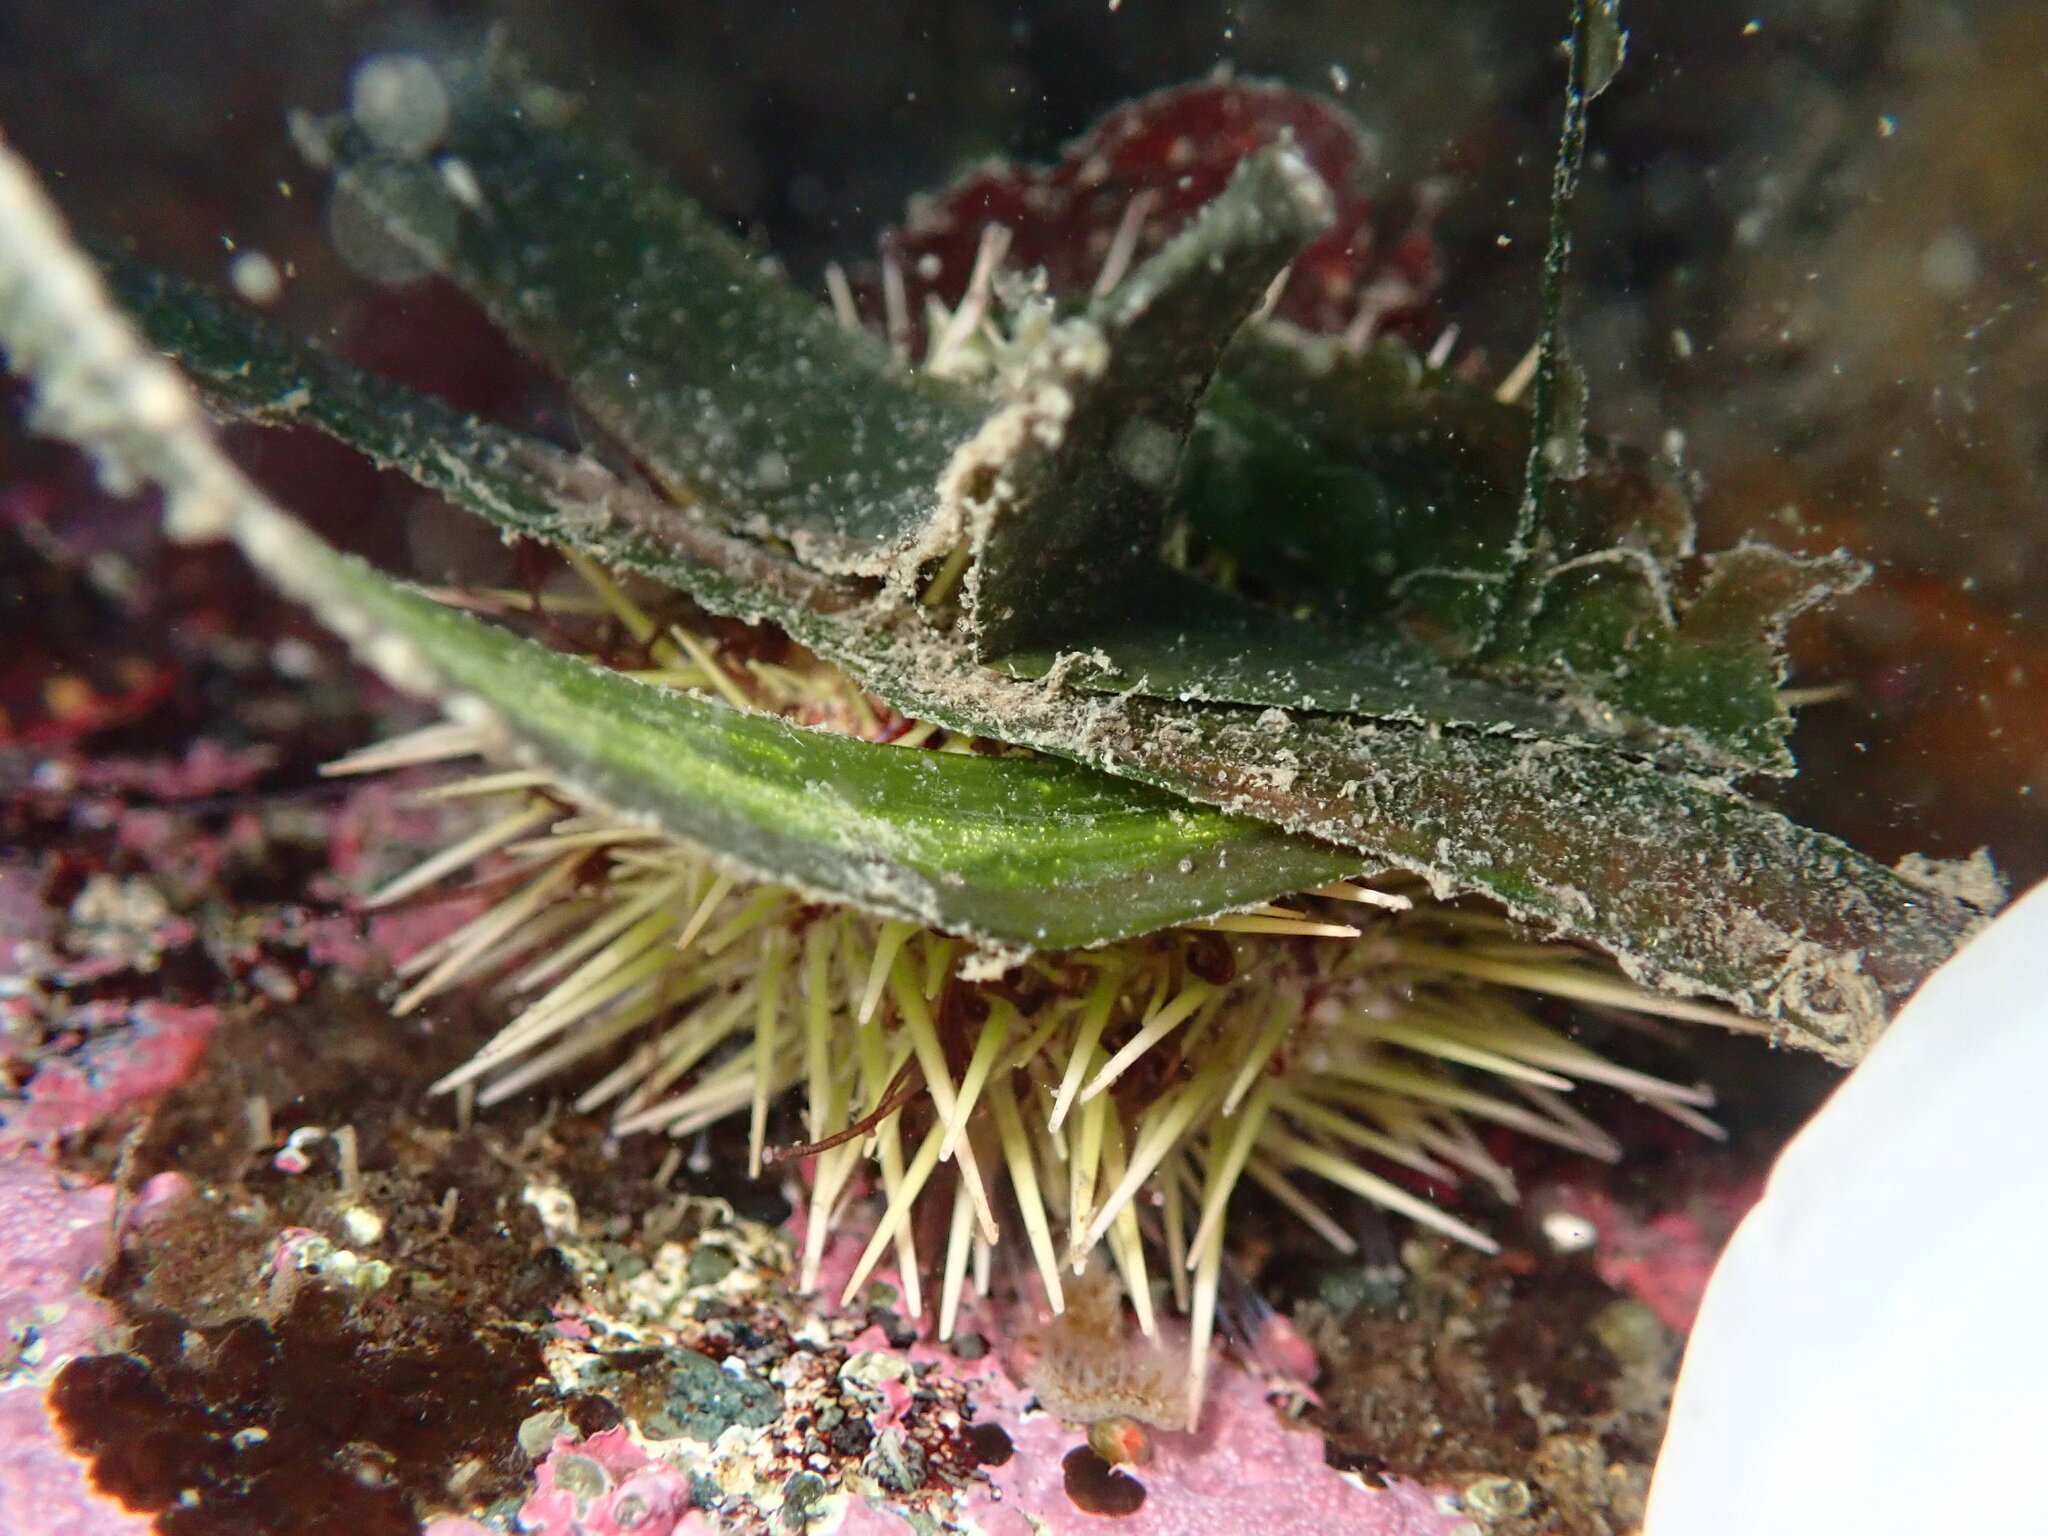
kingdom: Animalia
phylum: Echinodermata
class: Echinoidea
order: Camarodonta
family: Strongylocentrotidae
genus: Strongylocentrotus
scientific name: Strongylocentrotus droebachiensis
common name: Northern sea urchin
